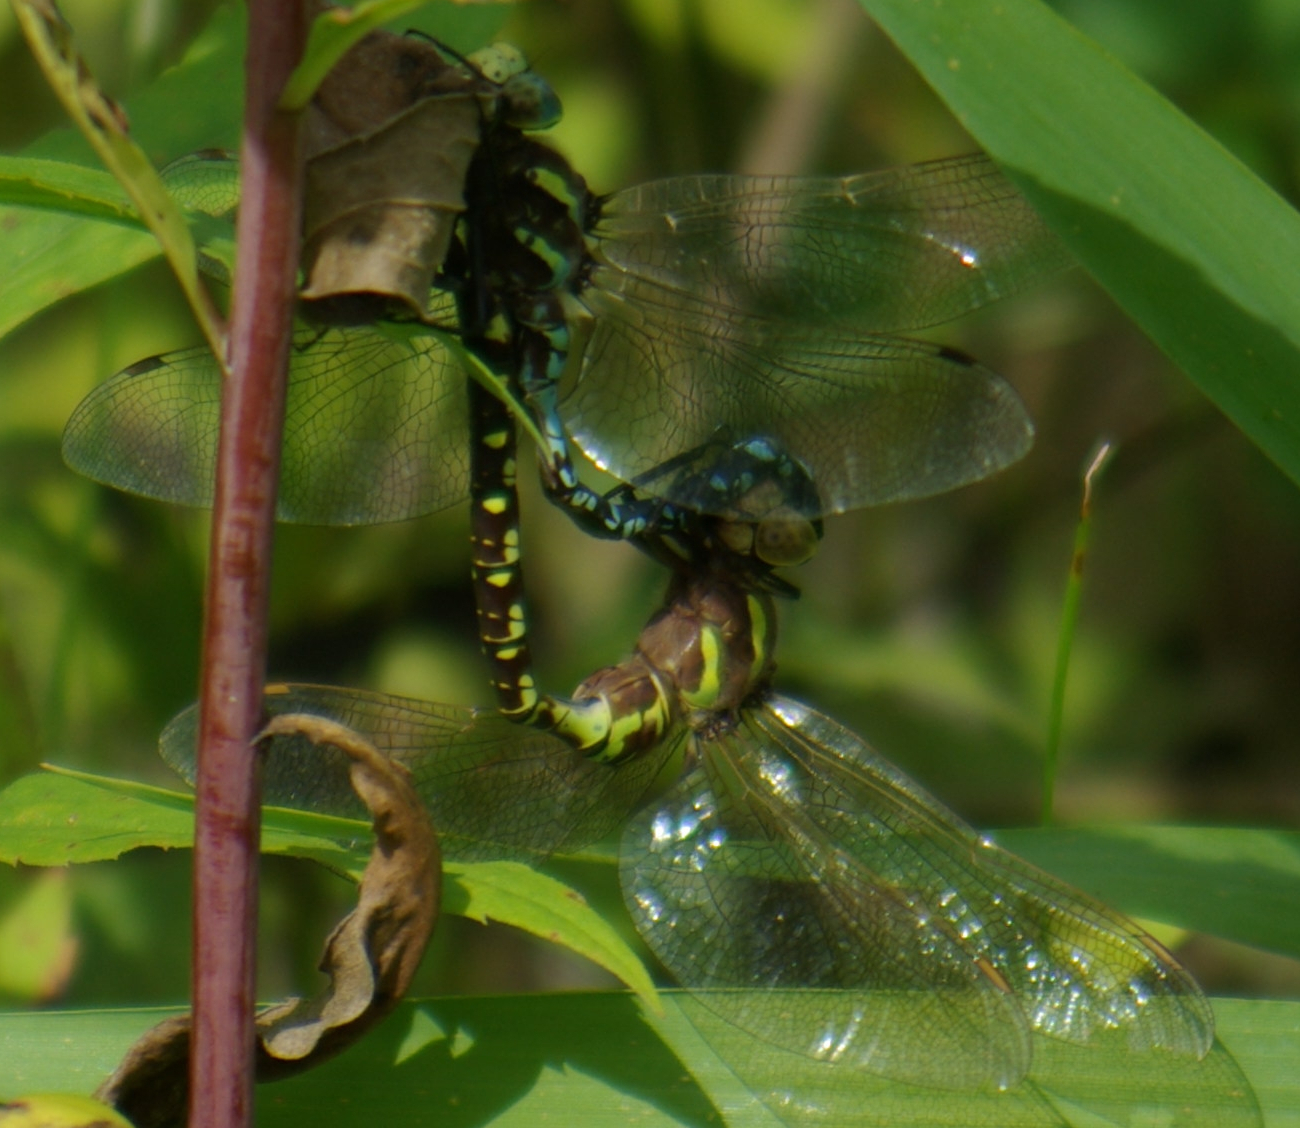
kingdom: Animalia
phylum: Arthropoda
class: Insecta
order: Odonata
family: Aeshnidae
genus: Aeshna
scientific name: Aeshna constricta
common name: Lance-tipped darner
